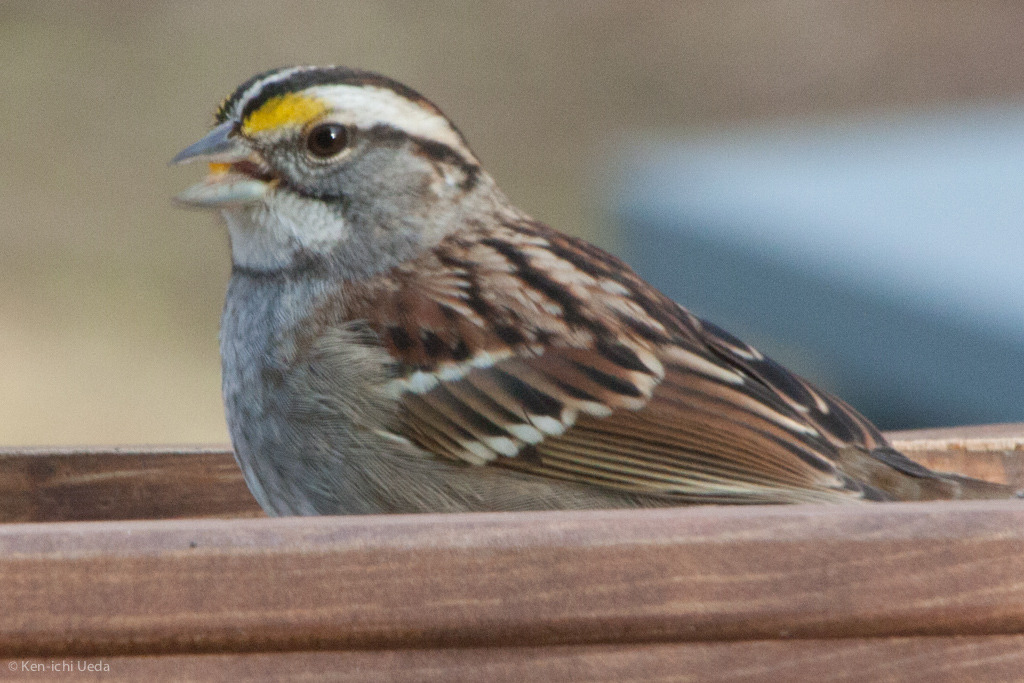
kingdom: Animalia
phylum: Chordata
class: Aves
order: Passeriformes
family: Passerellidae
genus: Zonotrichia
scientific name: Zonotrichia albicollis
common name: White-throated sparrow
